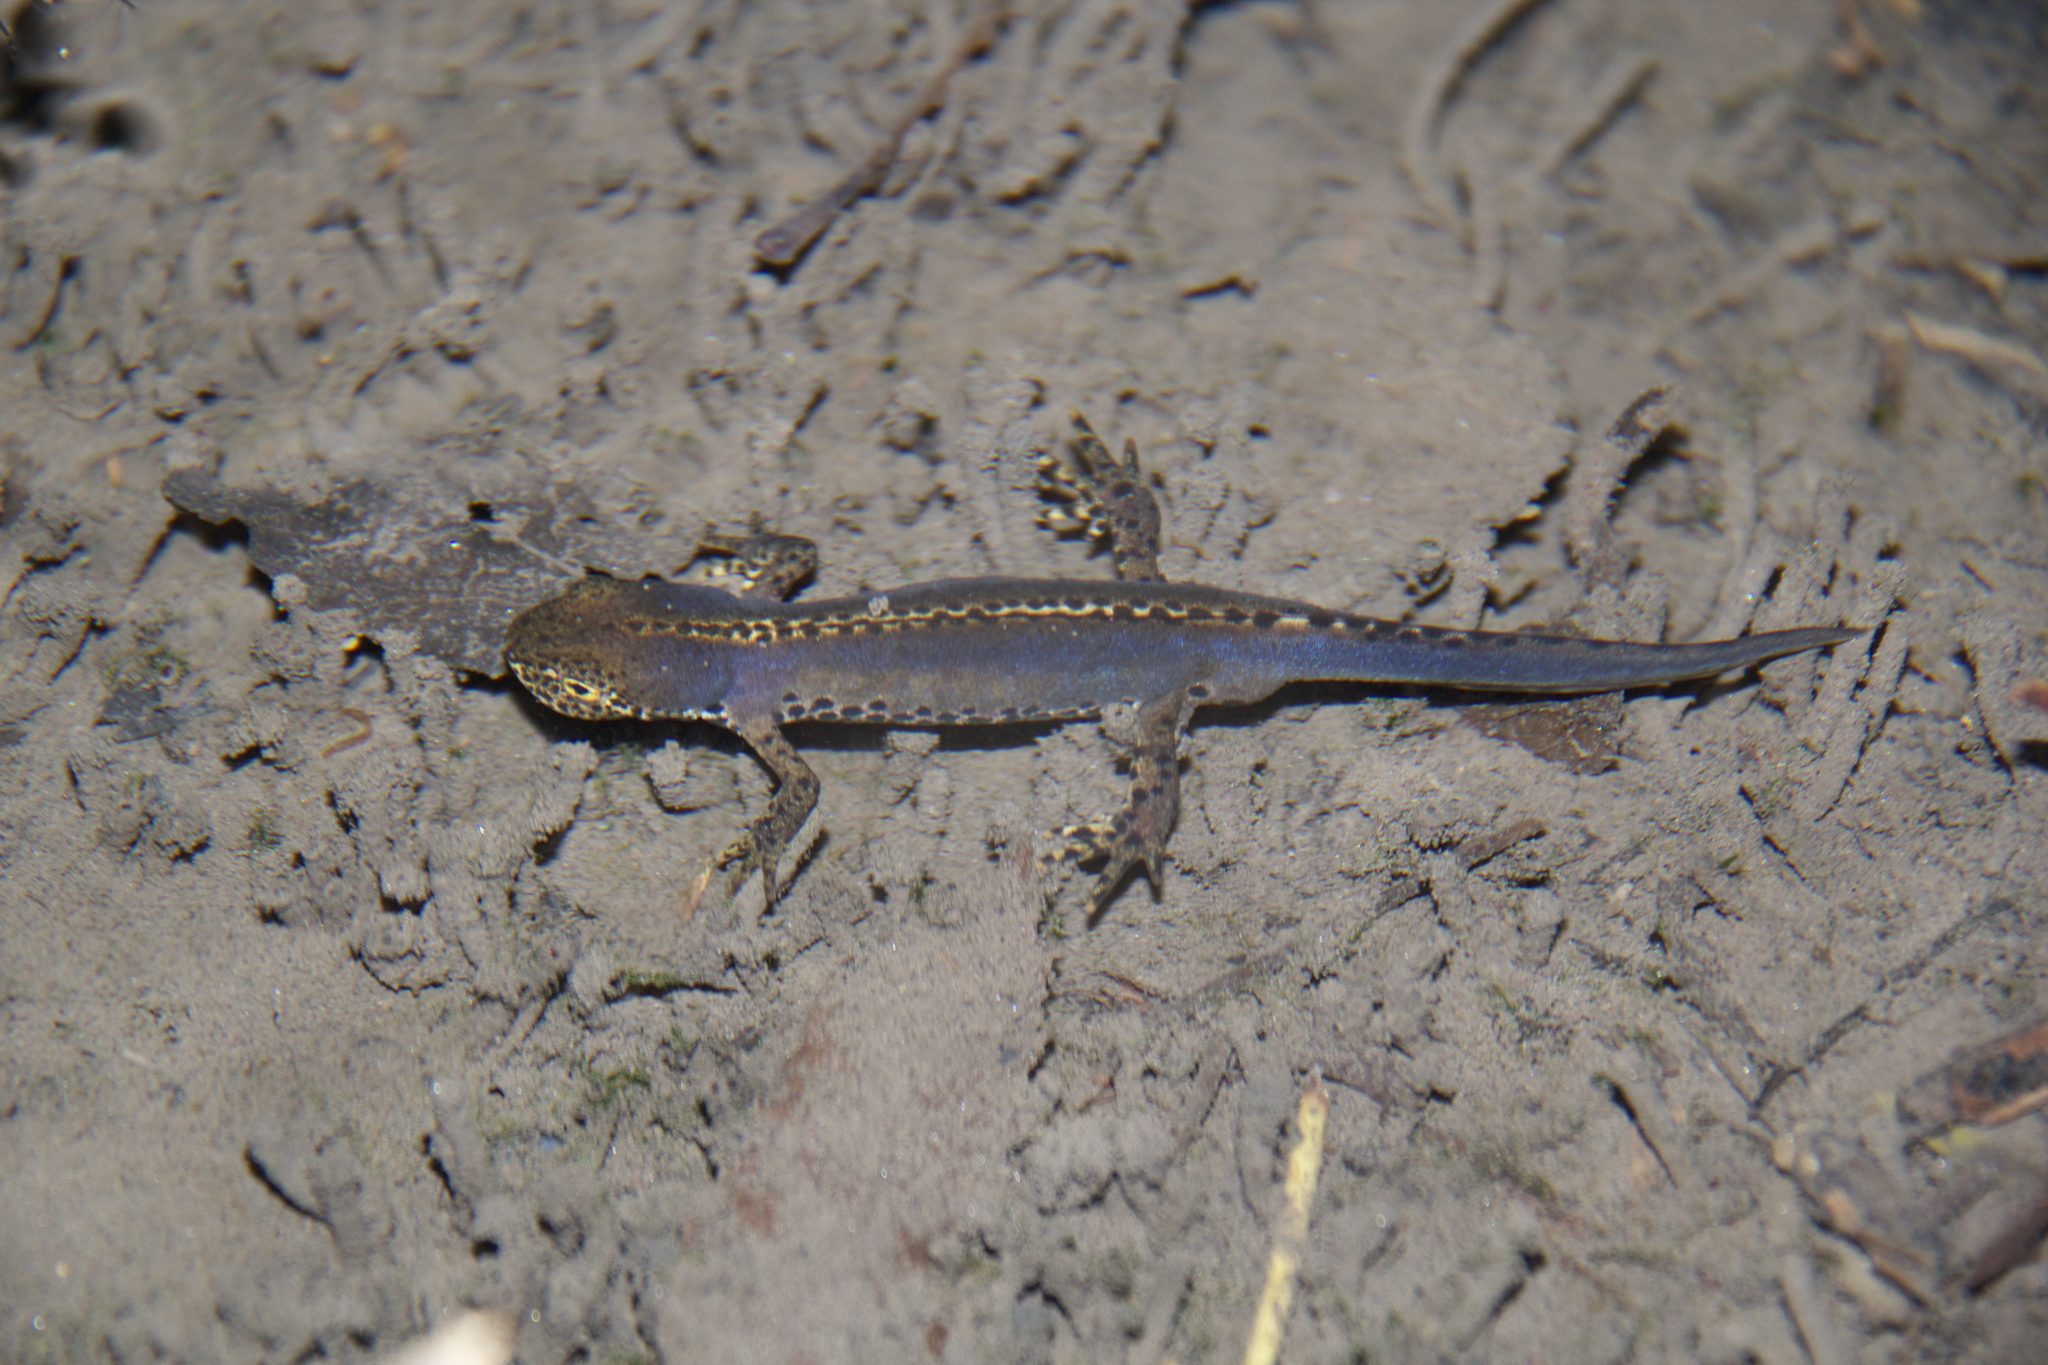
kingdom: Animalia
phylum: Chordata
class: Amphibia
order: Caudata
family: Salamandridae
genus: Ichthyosaura
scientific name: Ichthyosaura alpestris
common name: Alpine newt
